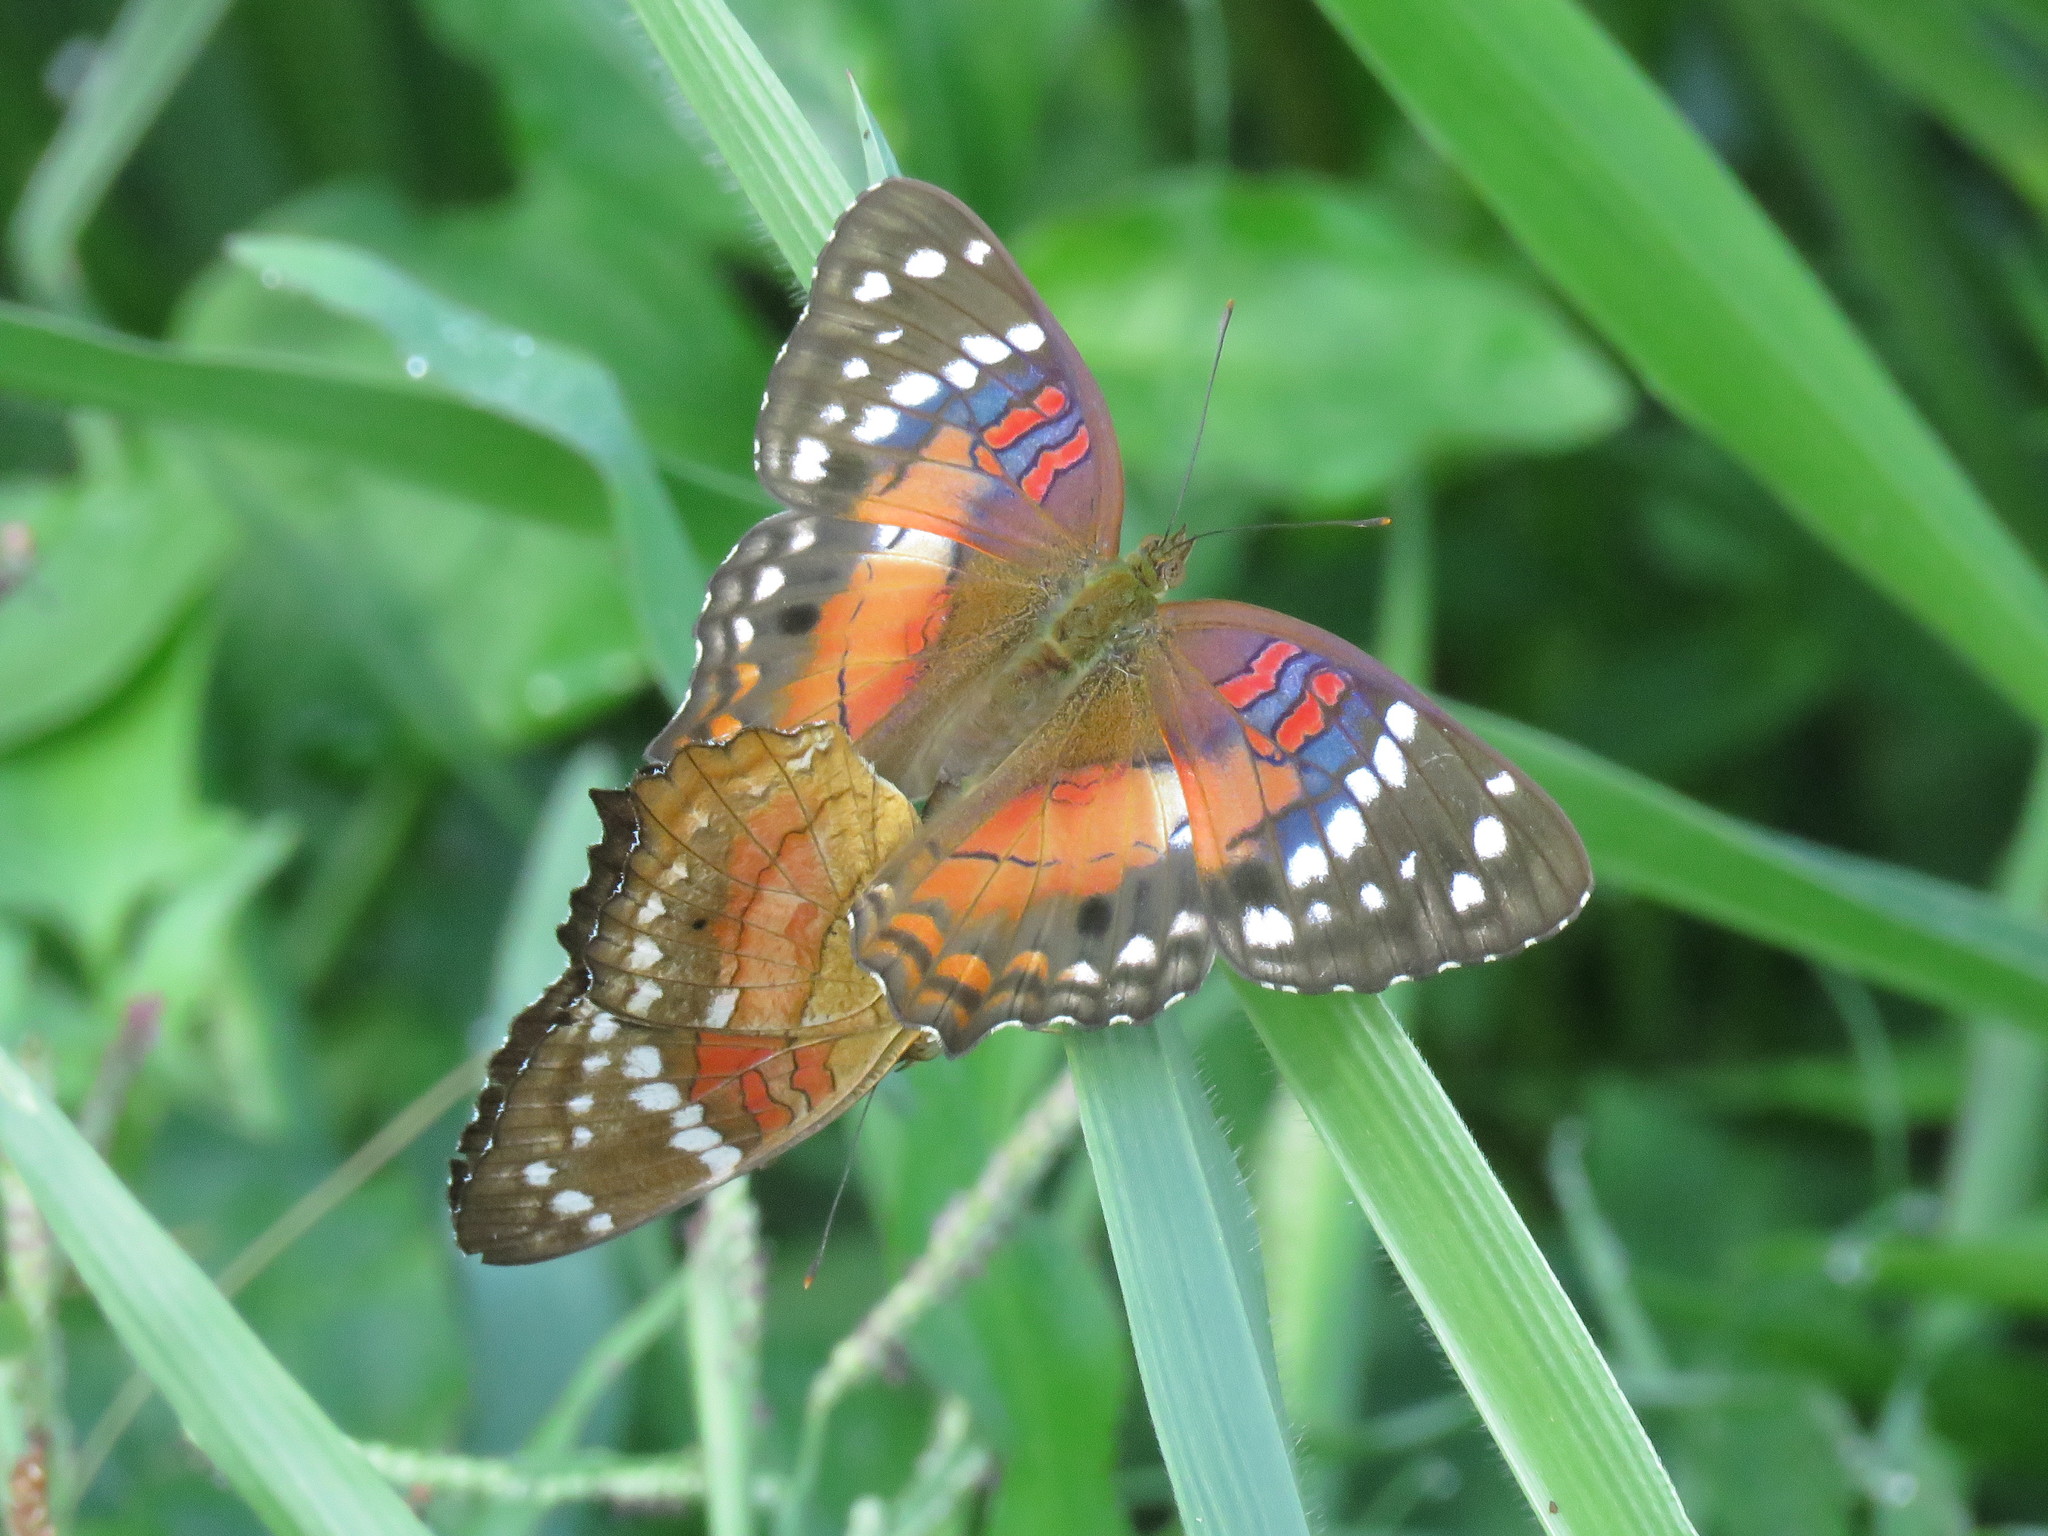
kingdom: Animalia
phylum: Arthropoda
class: Insecta
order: Lepidoptera
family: Nymphalidae
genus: Anartia
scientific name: Anartia amathea
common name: Red peacock
